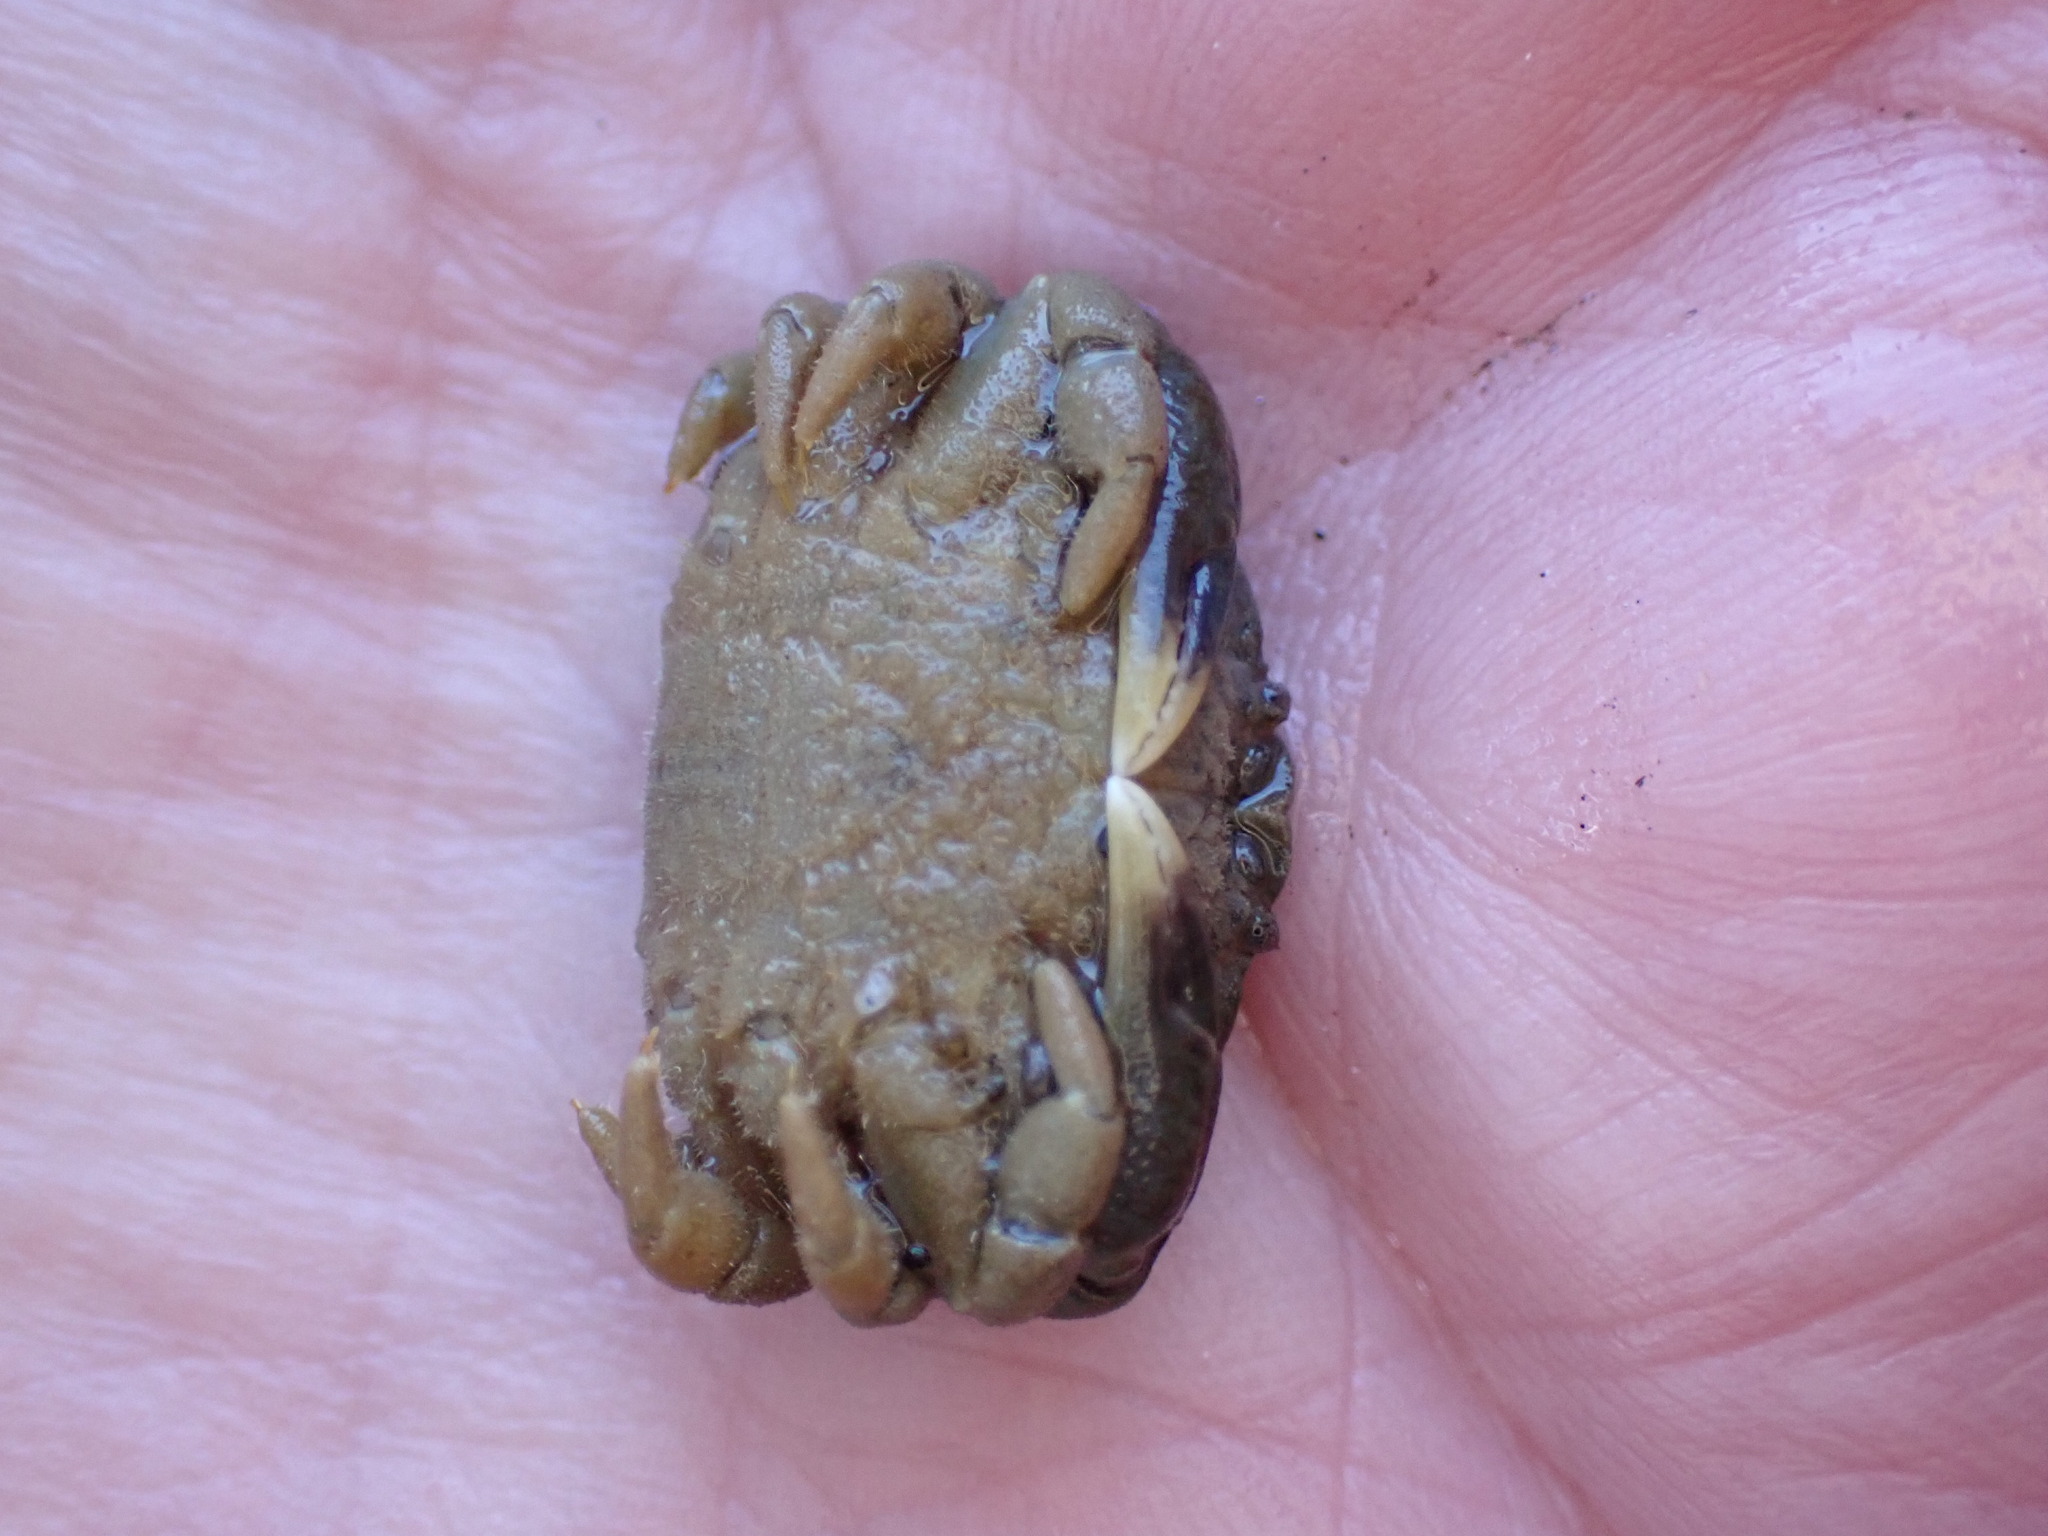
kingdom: Animalia
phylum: Arthropoda
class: Malacostraca
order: Decapoda
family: Heteroziidae
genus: Heterozius
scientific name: Heterozius rotundifrons
